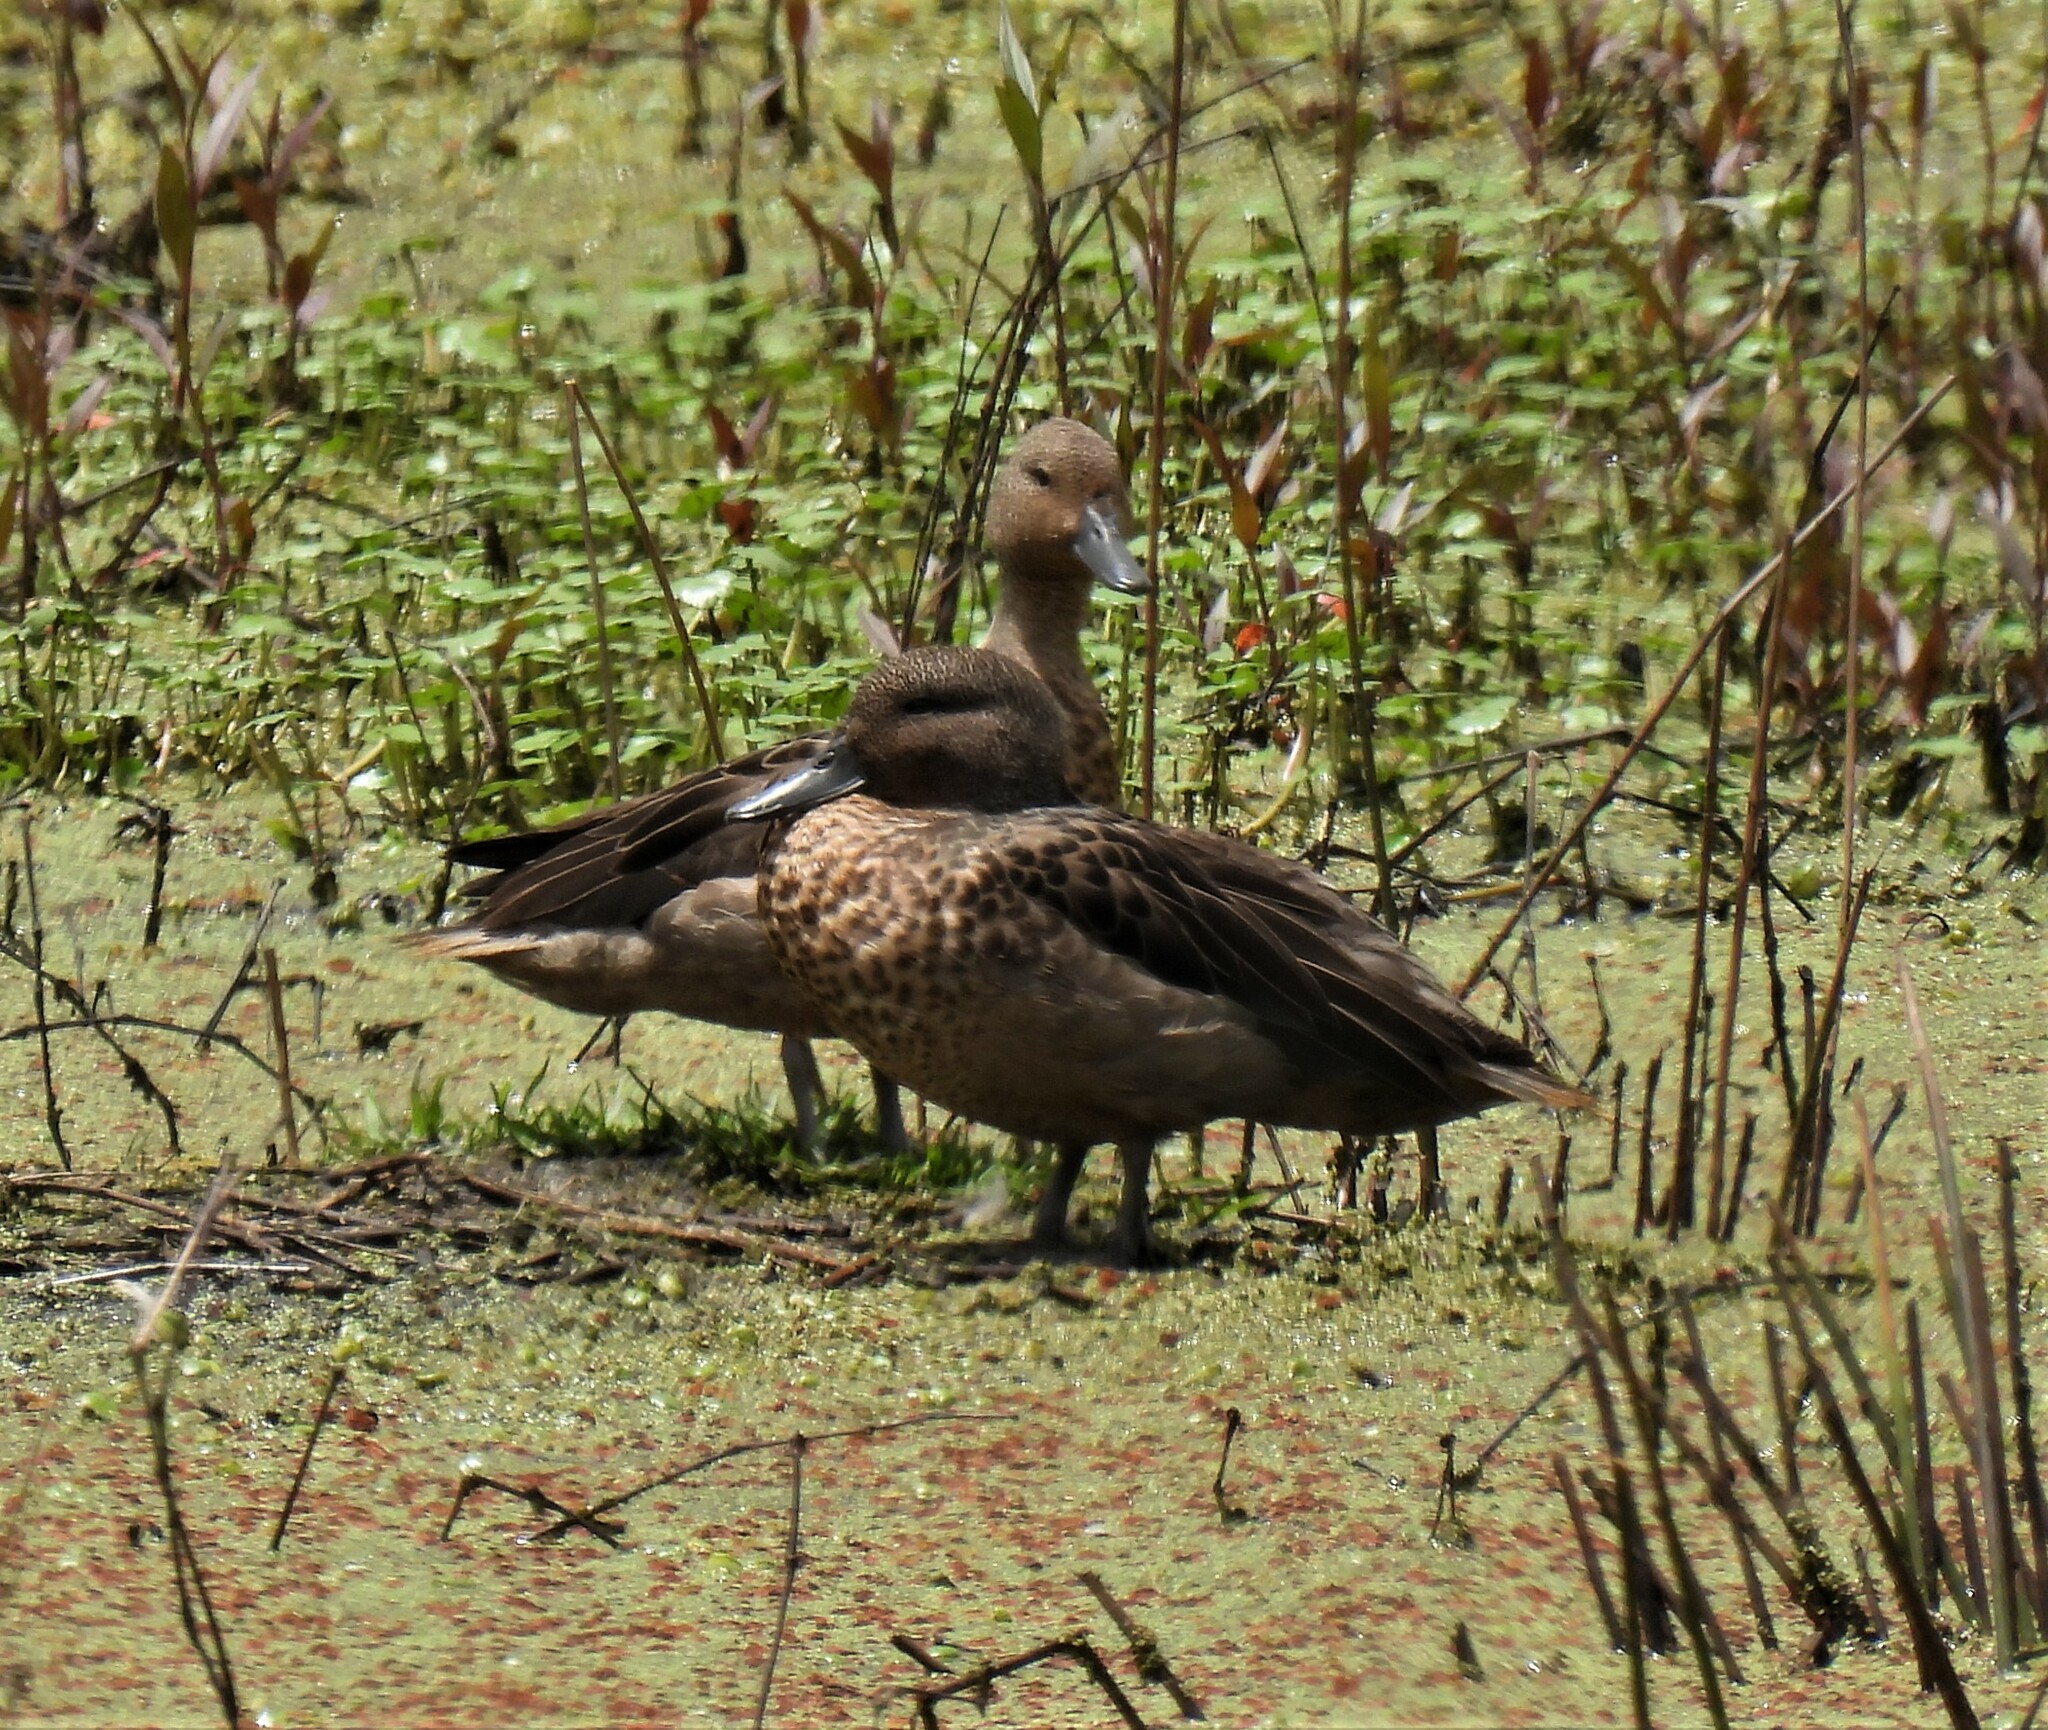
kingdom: Animalia
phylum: Chordata
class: Aves
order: Anseriformes
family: Anatidae
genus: Anas
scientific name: Anas andium
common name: Andean teal
